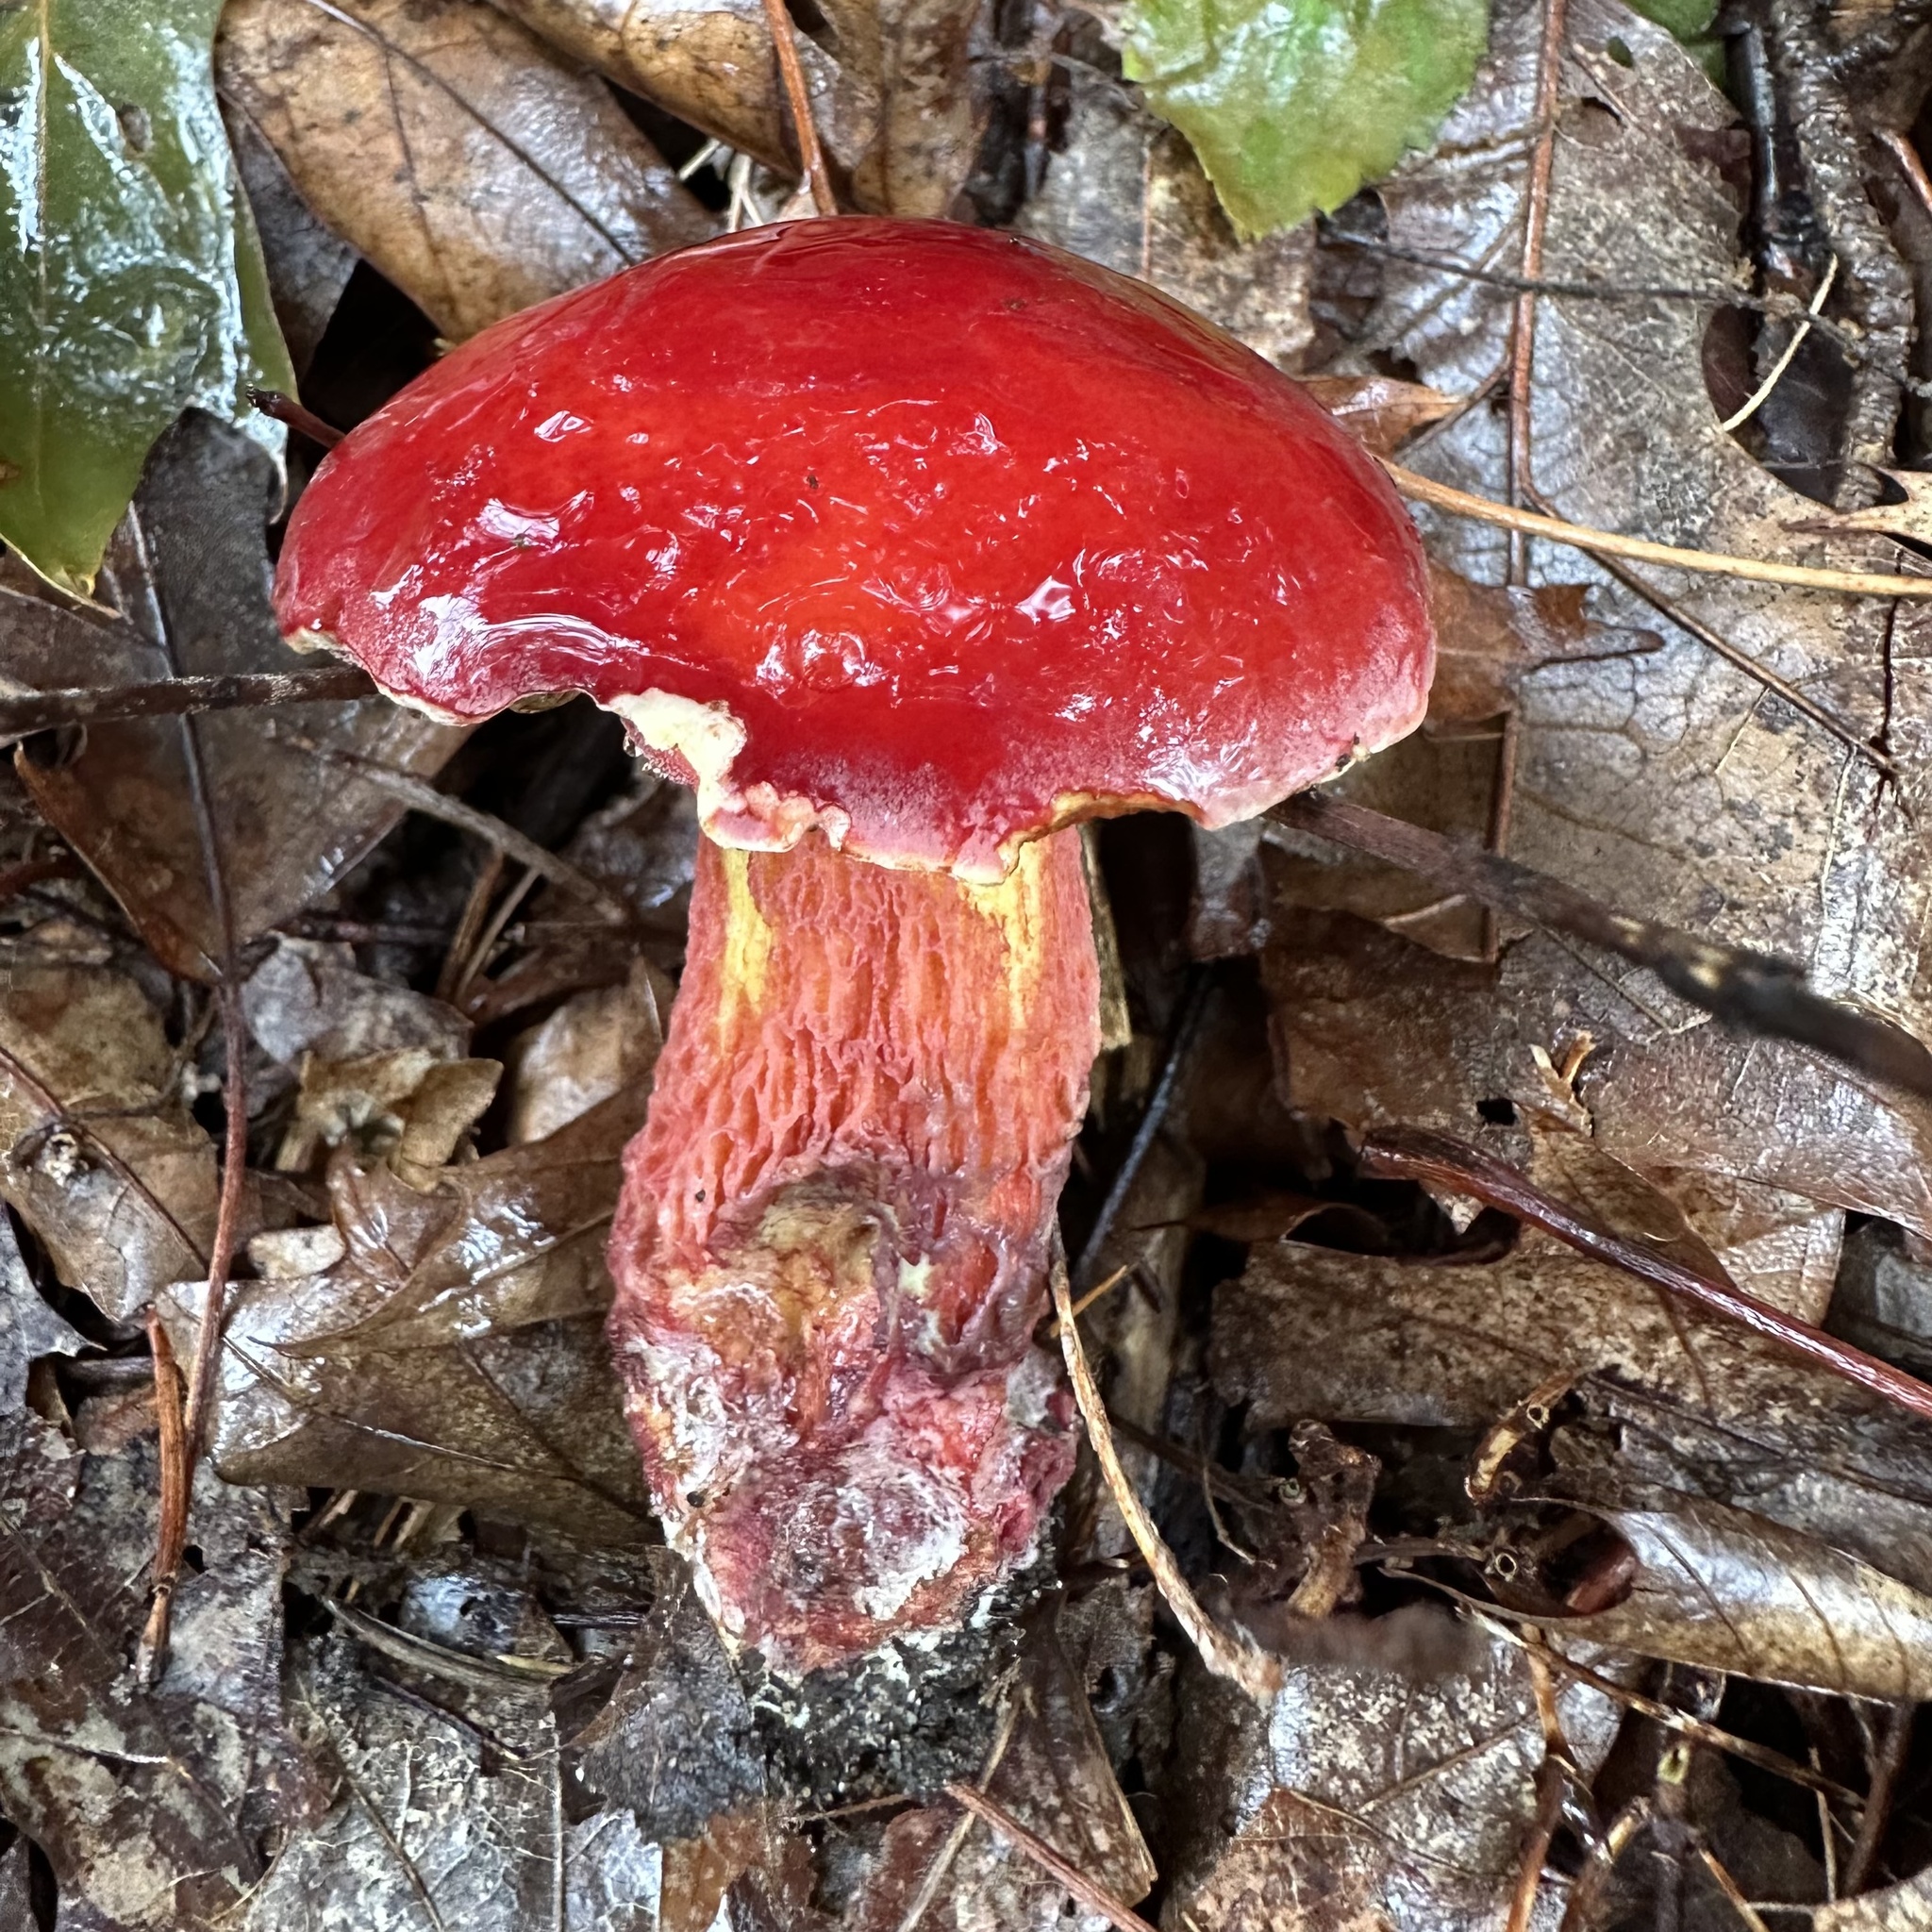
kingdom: Fungi
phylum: Basidiomycota
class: Agaricomycetes
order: Boletales
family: Boletaceae
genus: Butyriboletus
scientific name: Butyriboletus frostii
